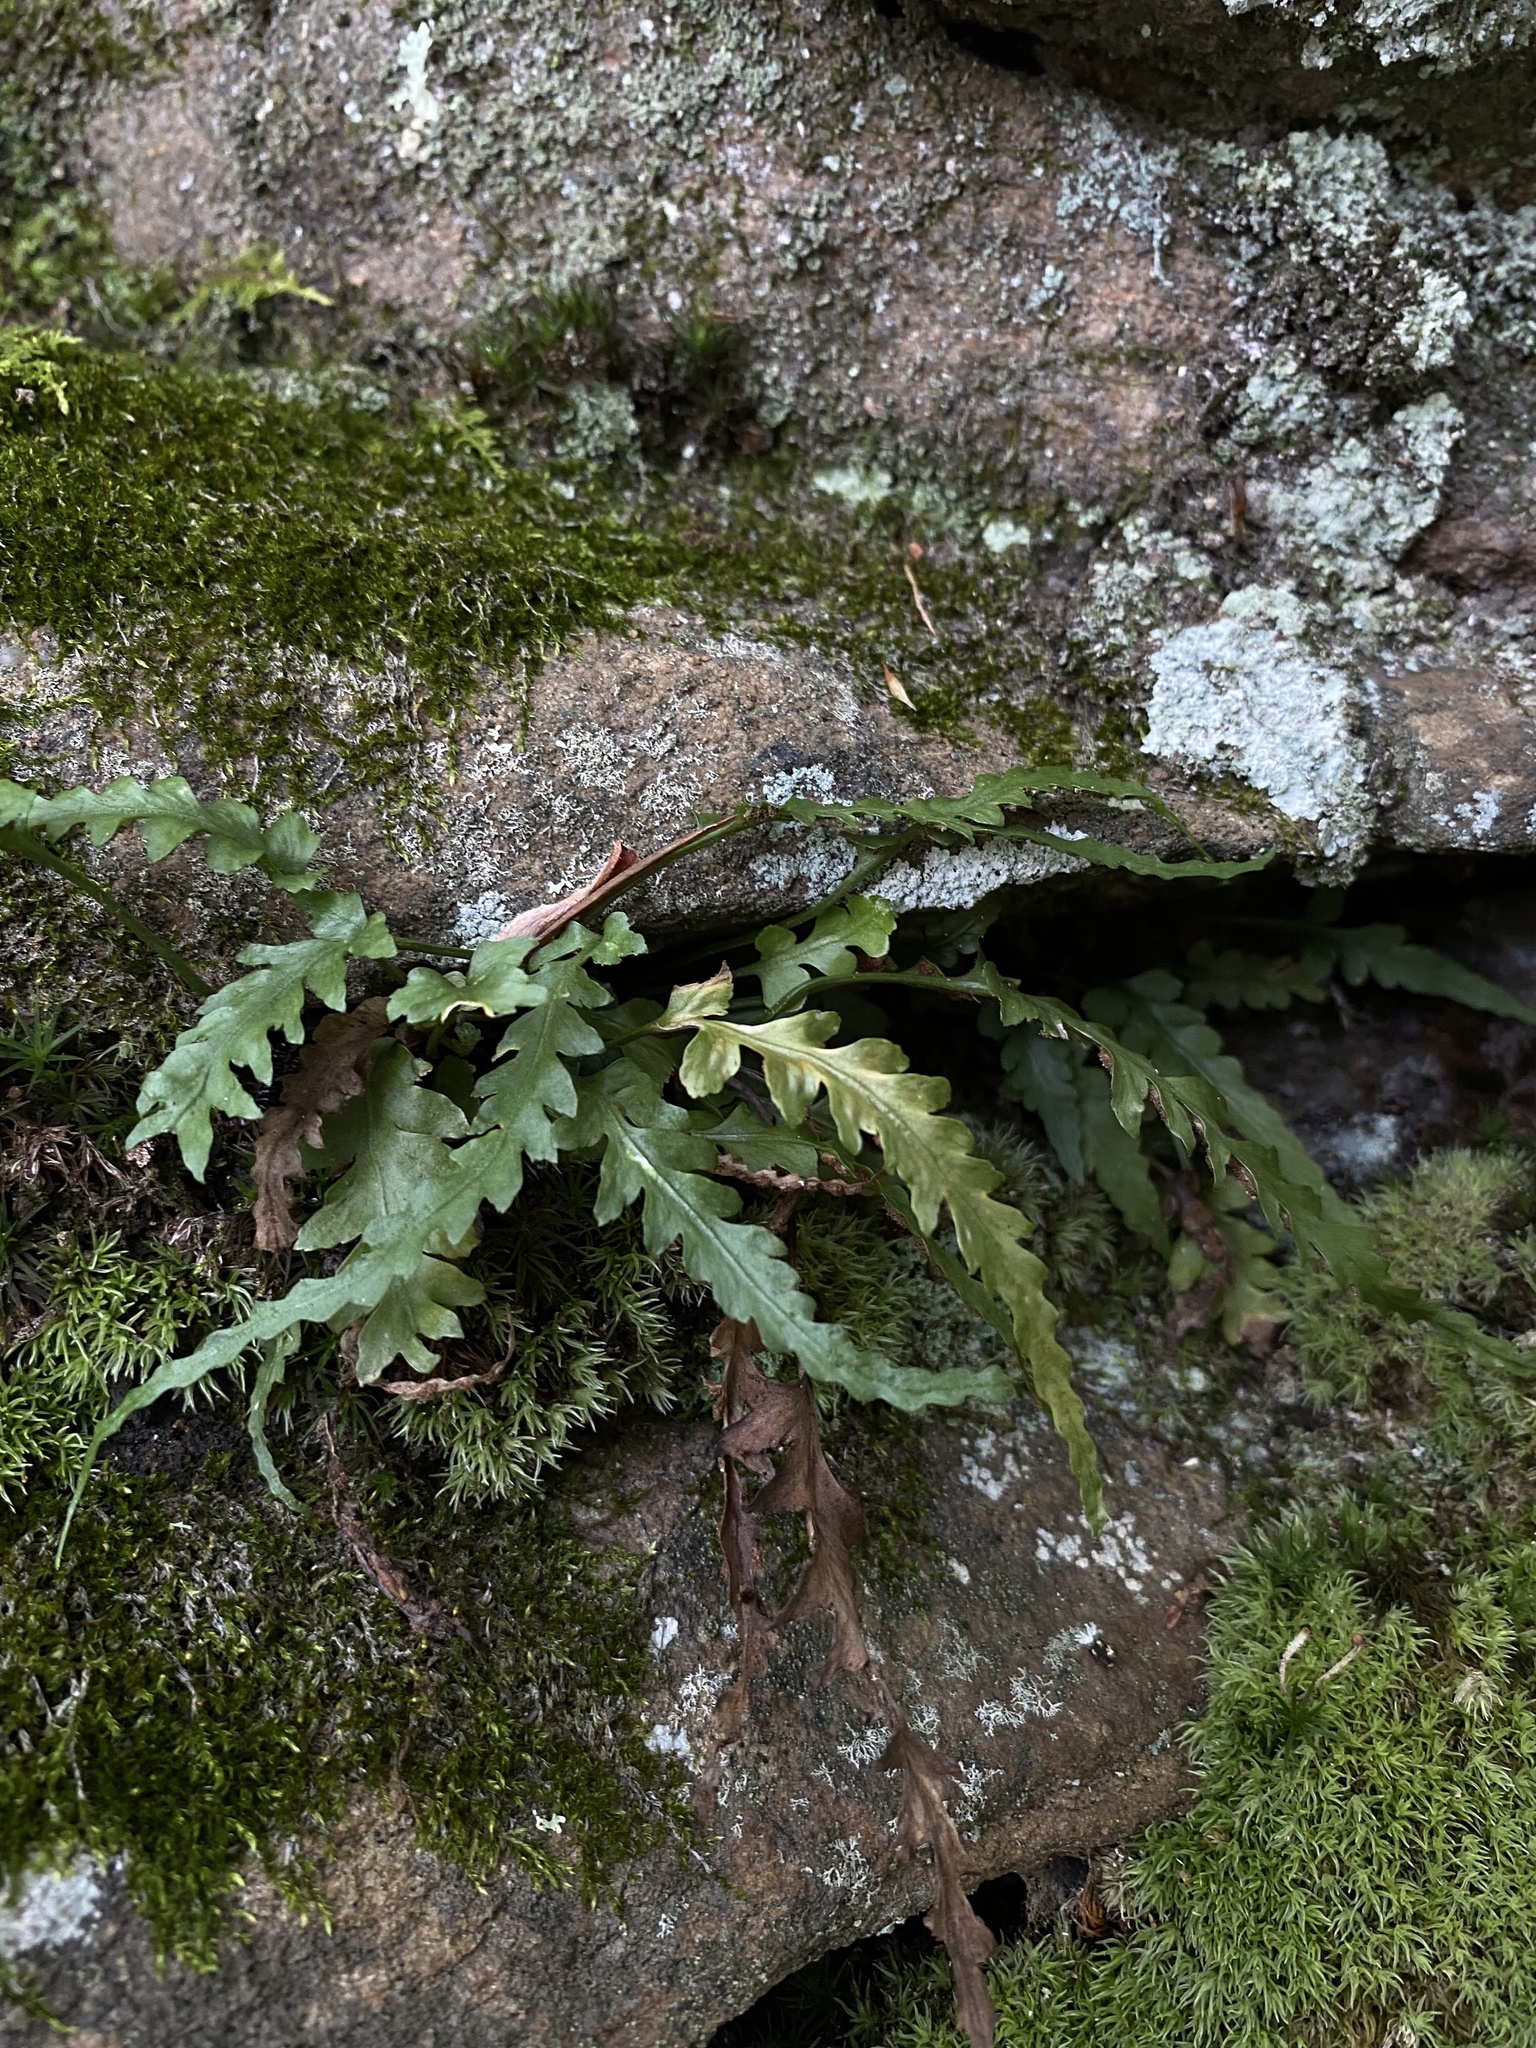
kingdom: Plantae
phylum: Tracheophyta
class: Polypodiopsida
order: Polypodiales
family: Aspleniaceae
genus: Asplenium
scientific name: Asplenium pinnatifidum
